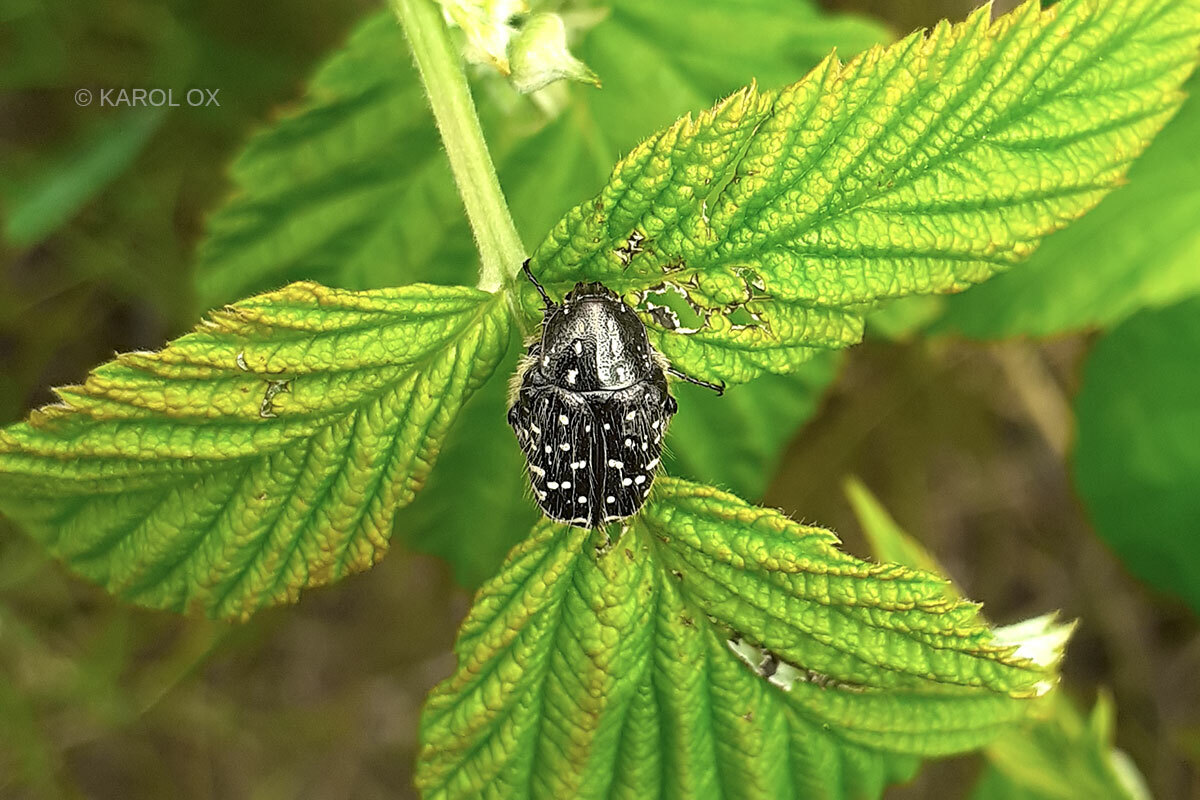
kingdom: Animalia
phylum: Arthropoda
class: Insecta
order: Coleoptera
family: Scarabaeidae
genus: Oxythyrea
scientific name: Oxythyrea funesta
